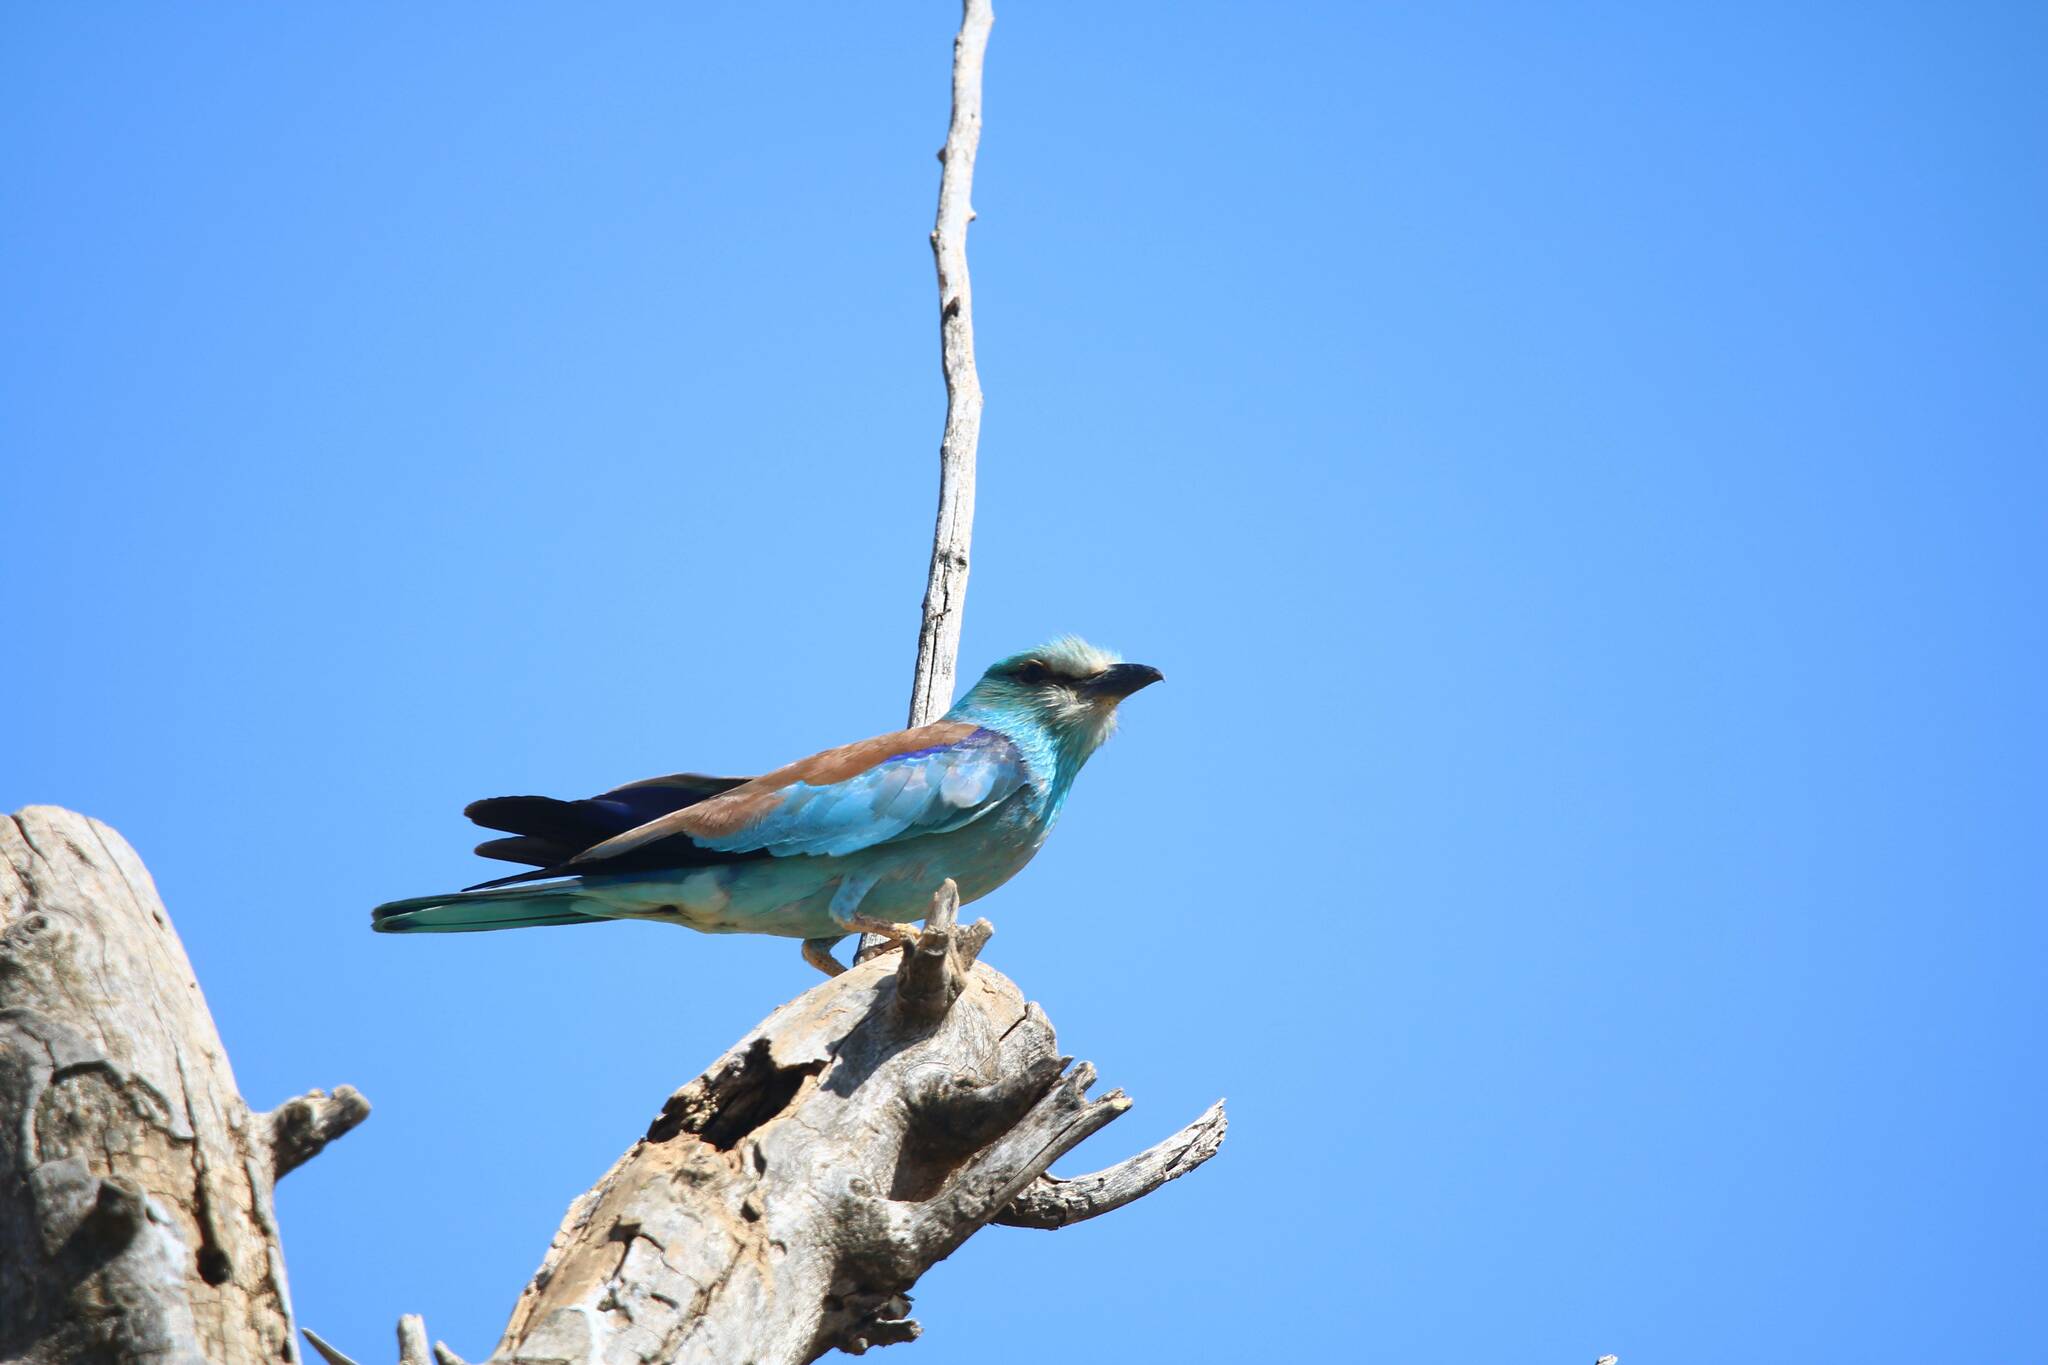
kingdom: Animalia
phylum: Chordata
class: Aves
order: Coraciiformes
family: Coraciidae
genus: Coracias
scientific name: Coracias garrulus
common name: European roller
